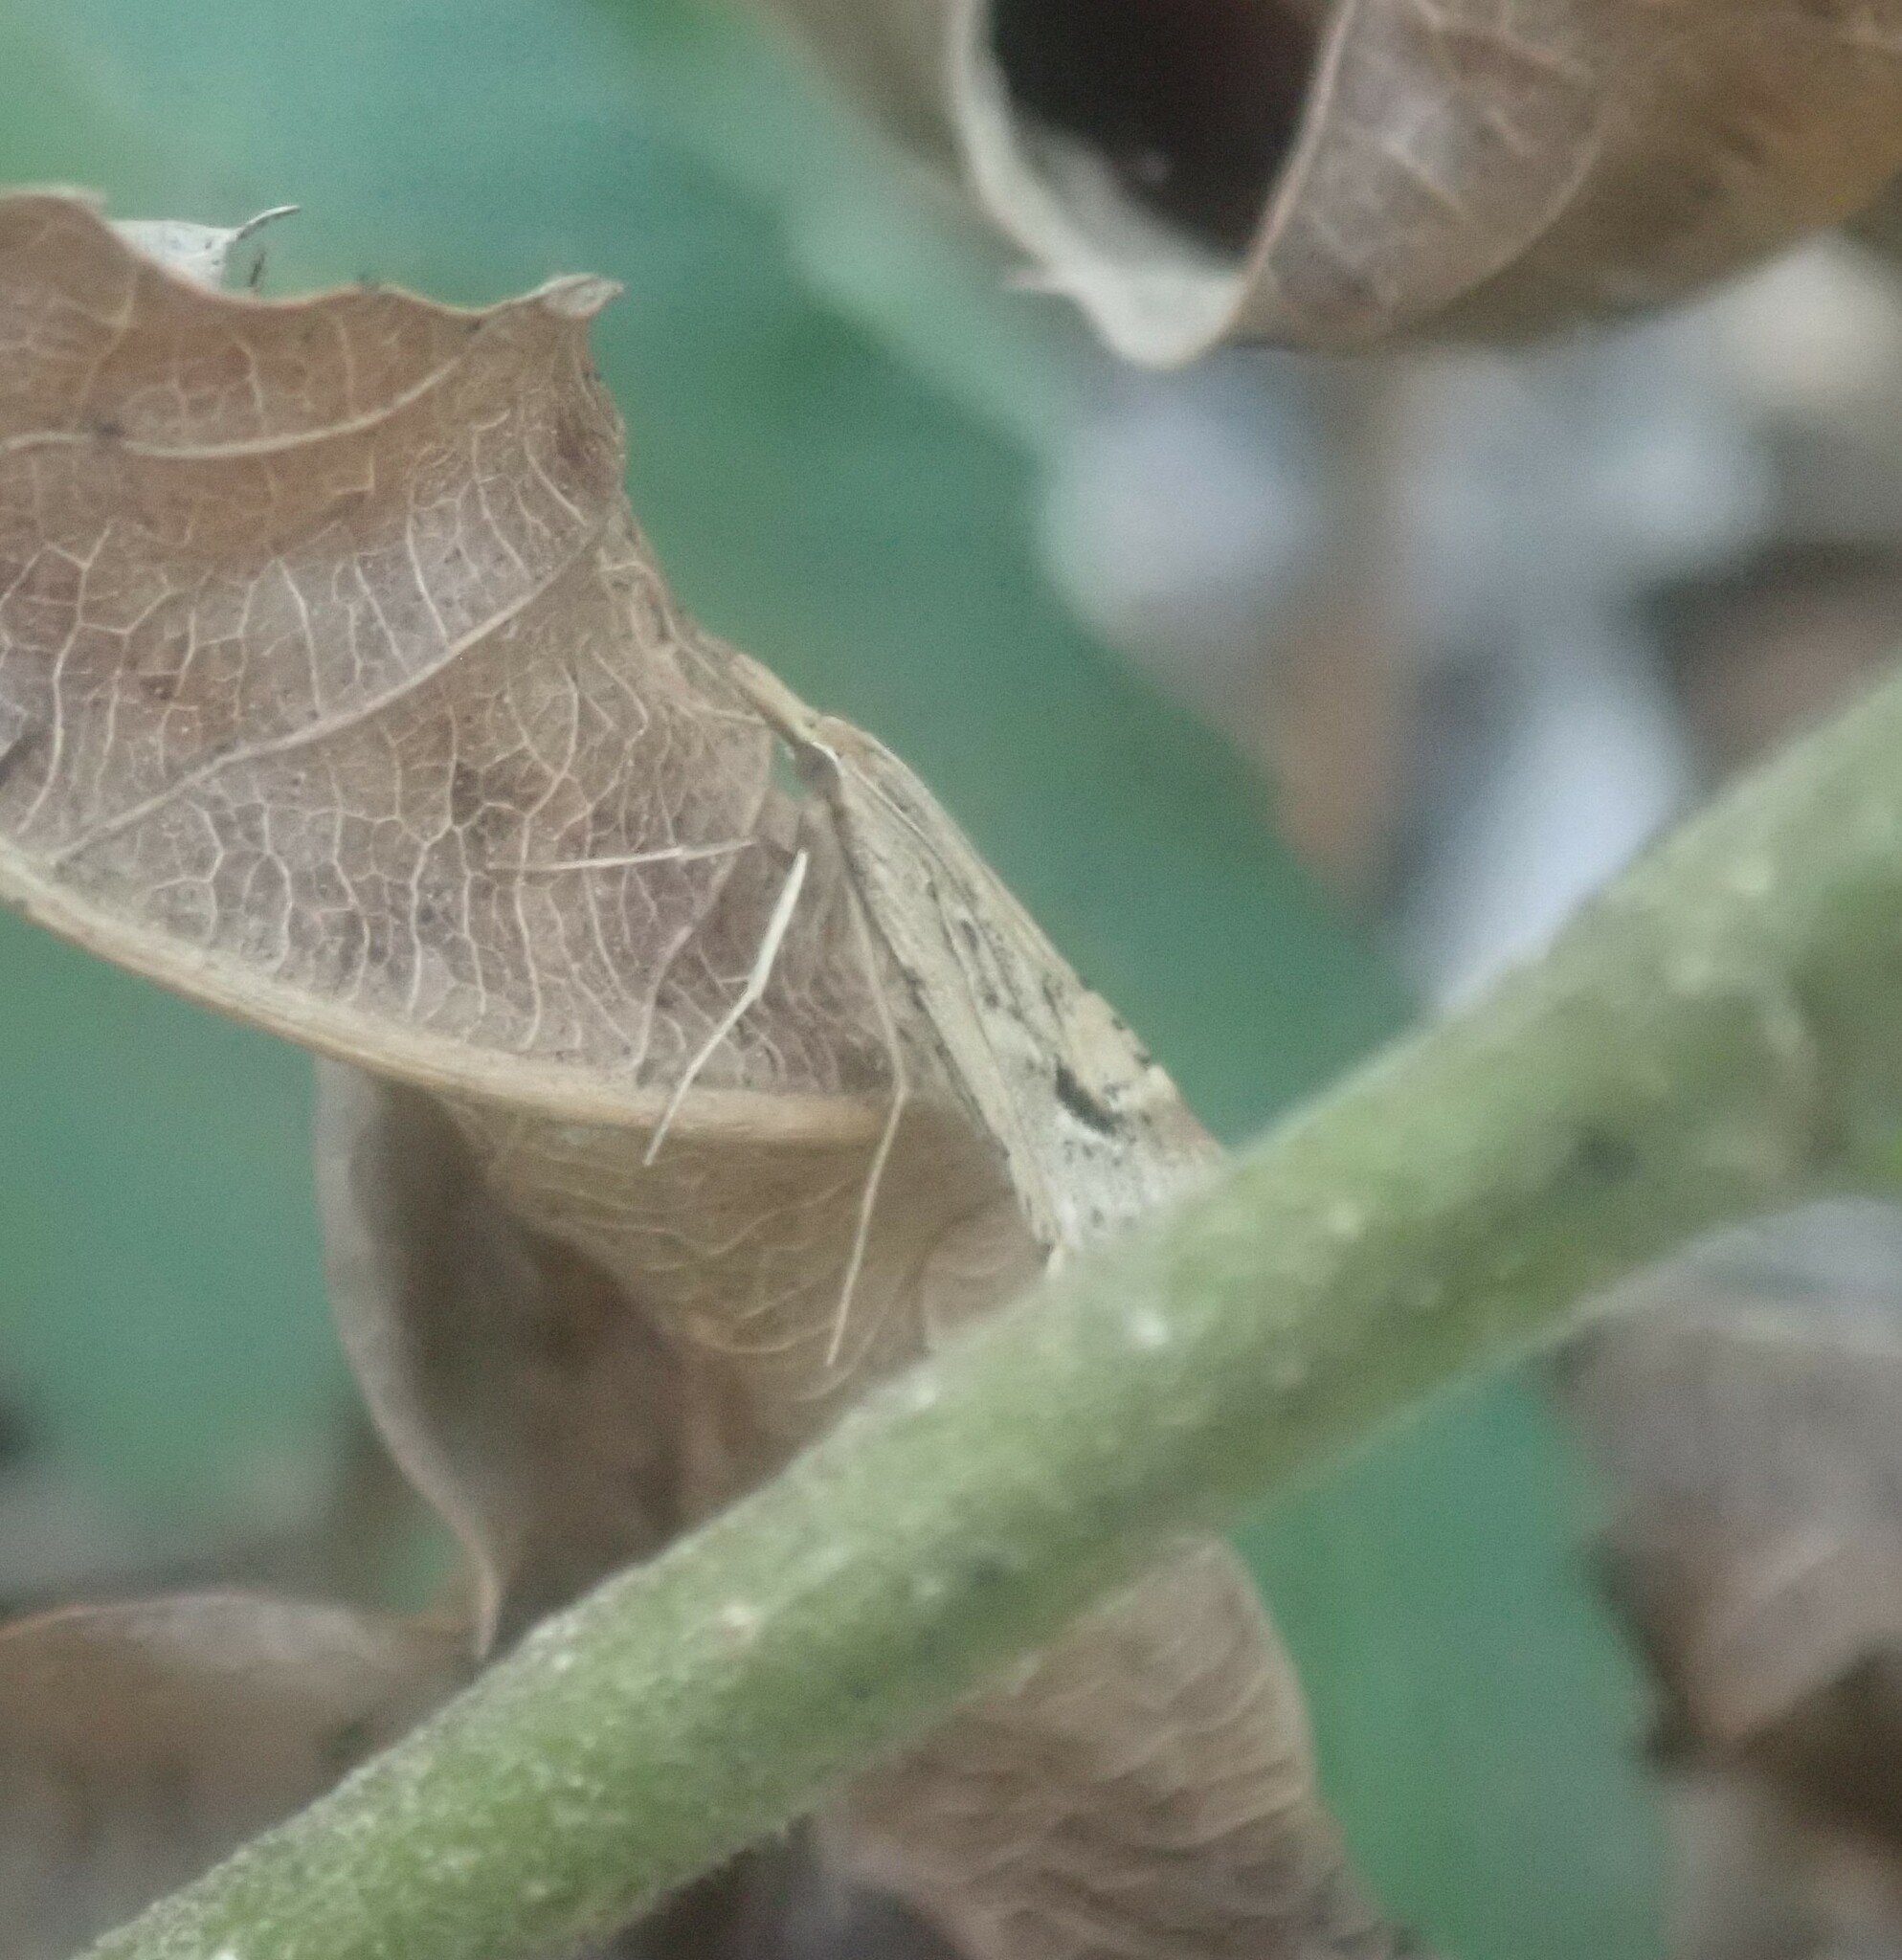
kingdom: Animalia
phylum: Arthropoda
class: Insecta
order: Lepidoptera
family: Crambidae
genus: Diasemia
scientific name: Diasemia monostigma
